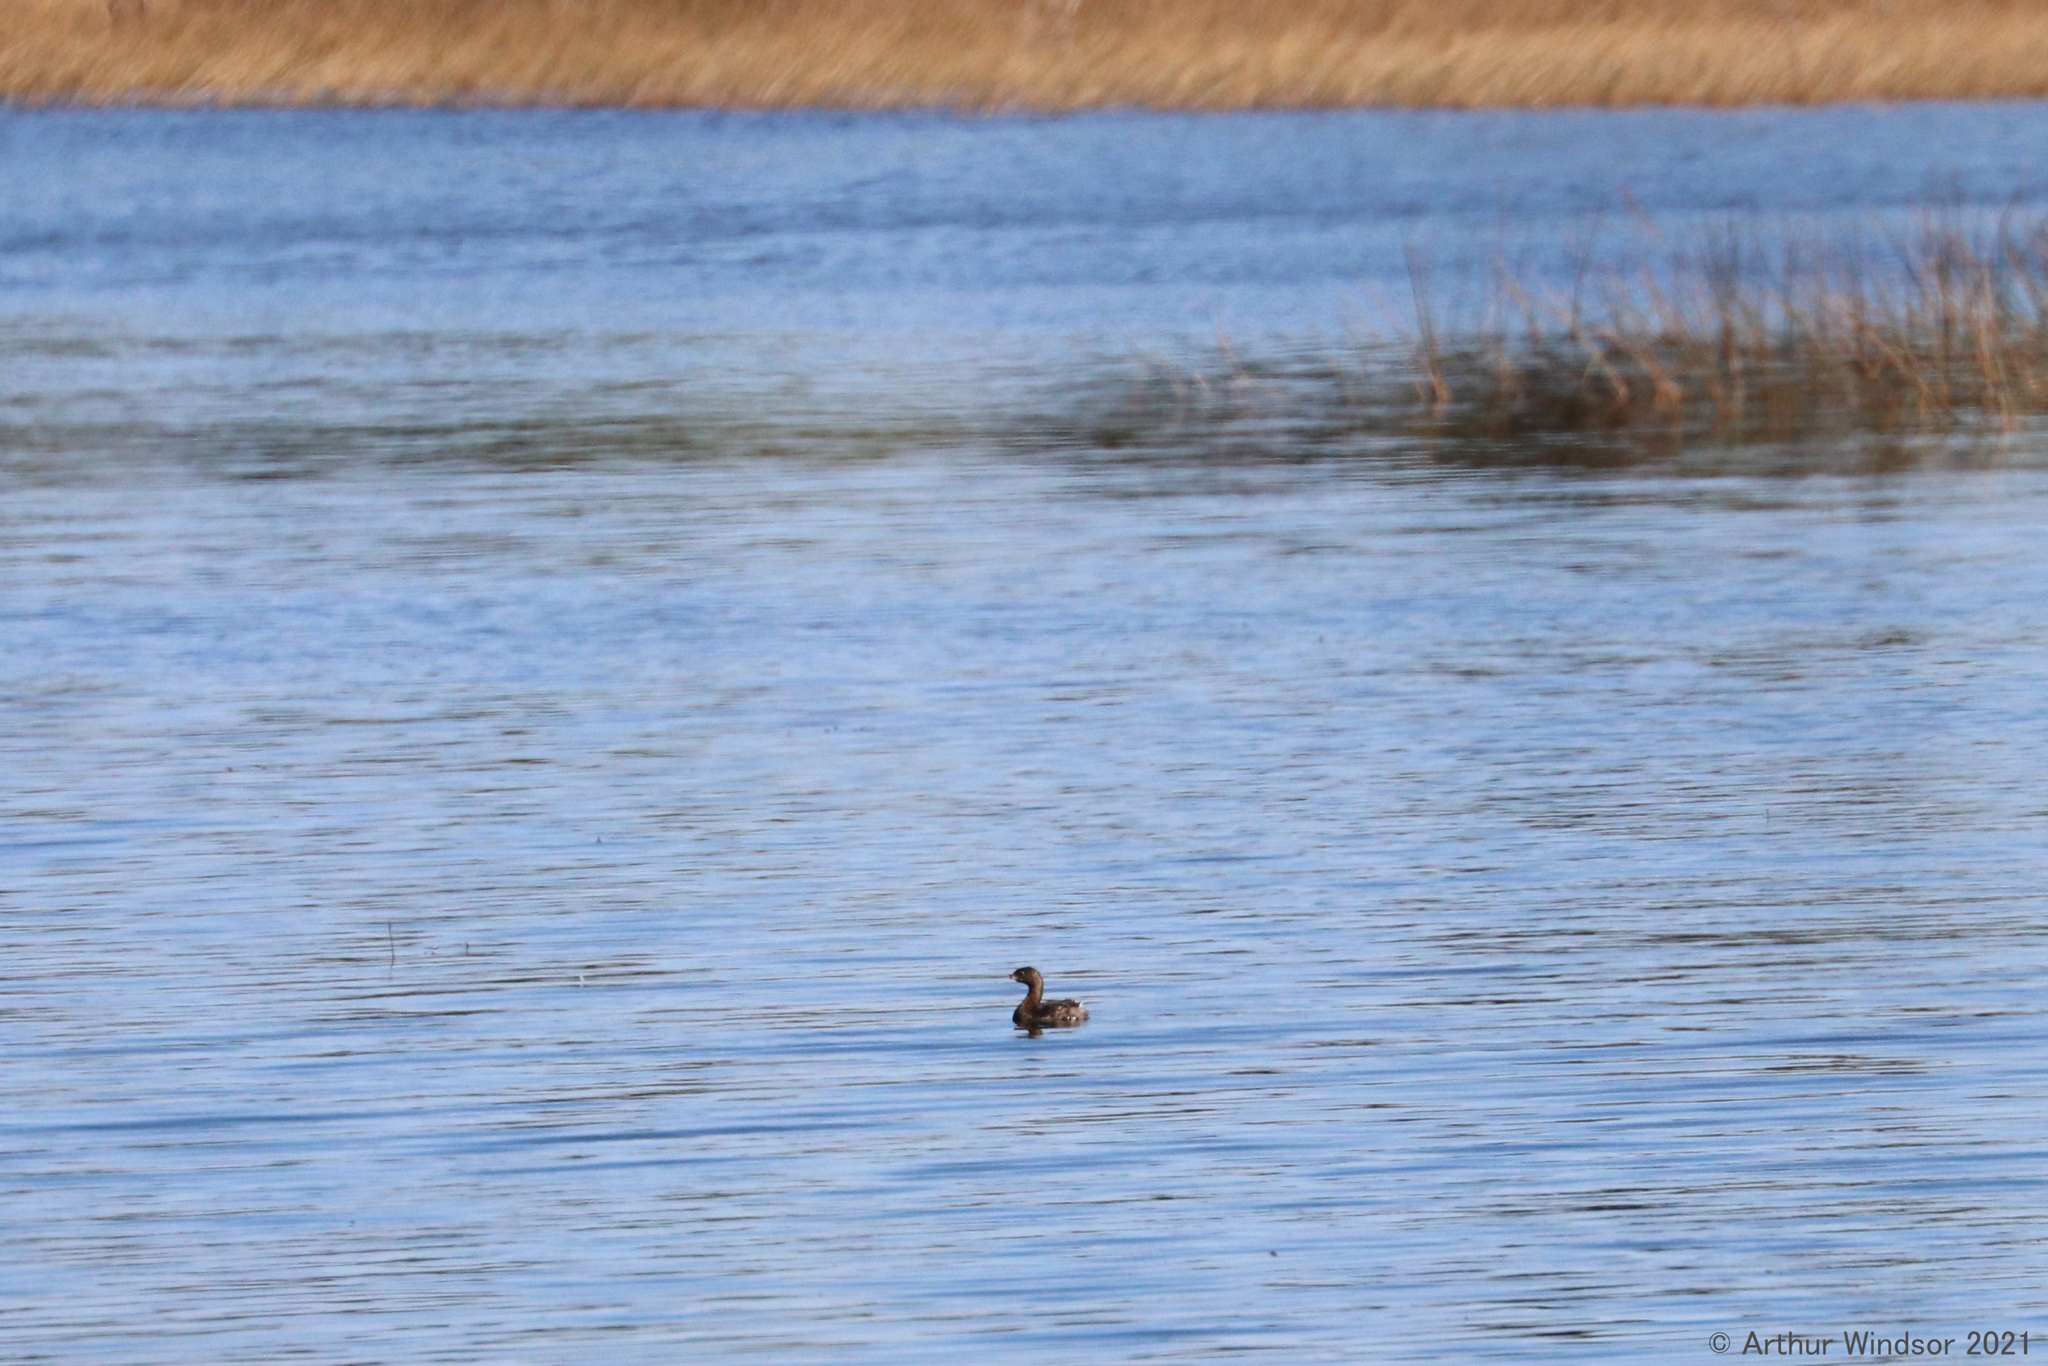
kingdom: Animalia
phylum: Chordata
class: Aves
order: Podicipediformes
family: Podicipedidae
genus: Podilymbus
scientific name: Podilymbus podiceps
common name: Pied-billed grebe
